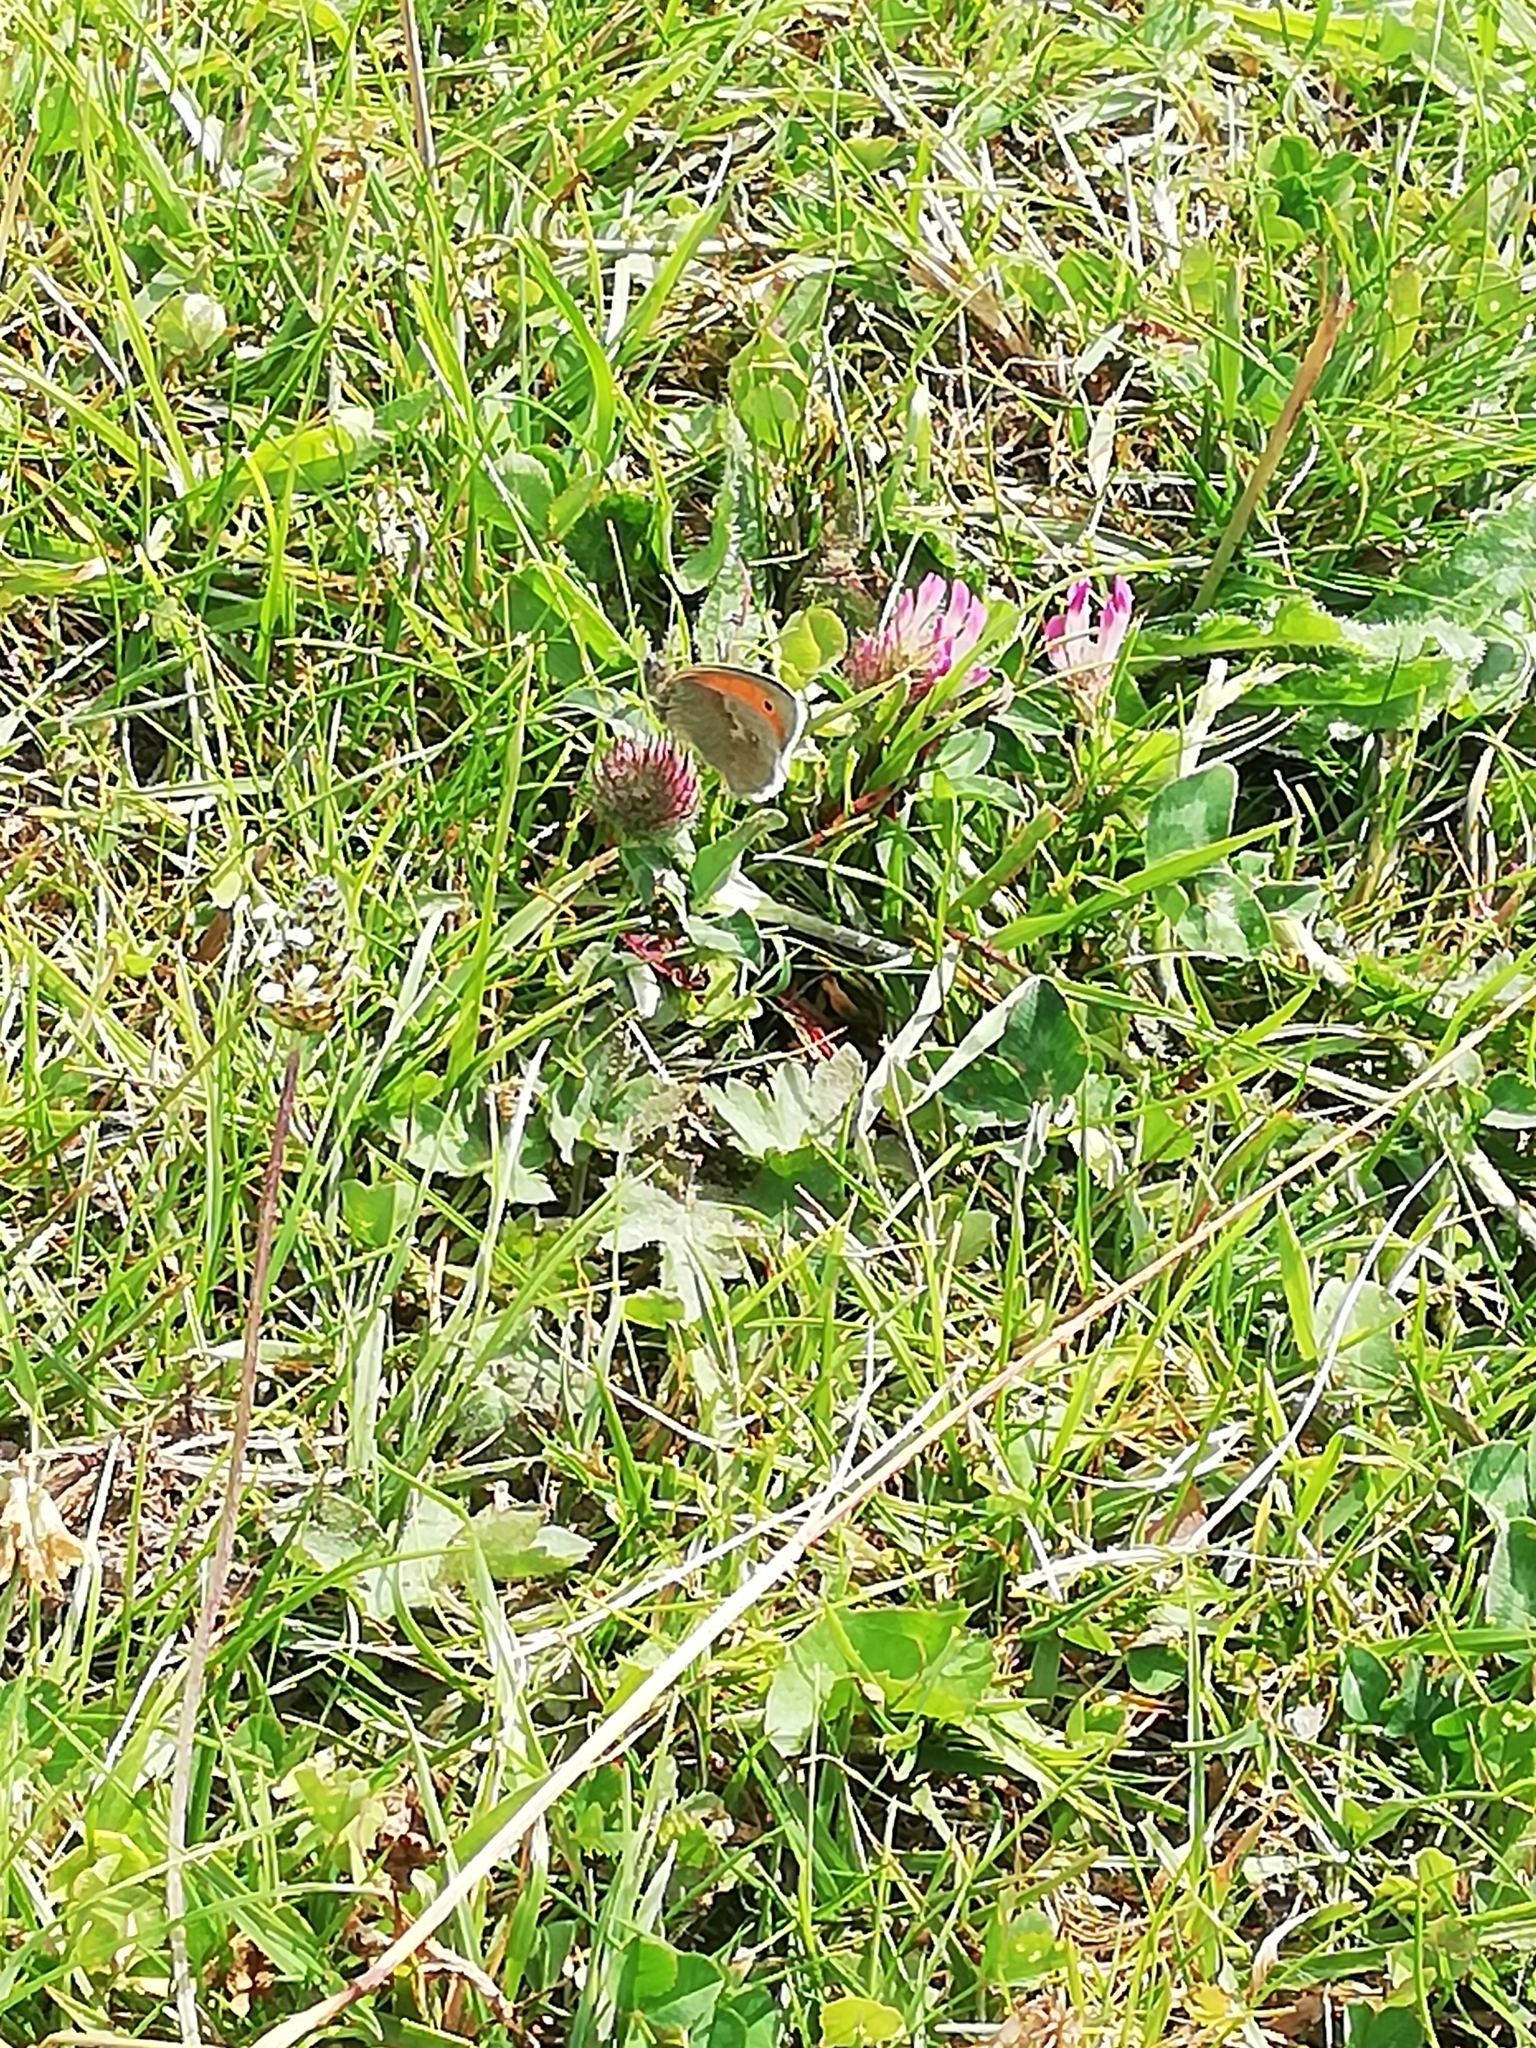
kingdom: Animalia
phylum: Arthropoda
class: Insecta
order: Lepidoptera
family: Nymphalidae
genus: Coenonympha
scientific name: Coenonympha pamphilus
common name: Small heath
